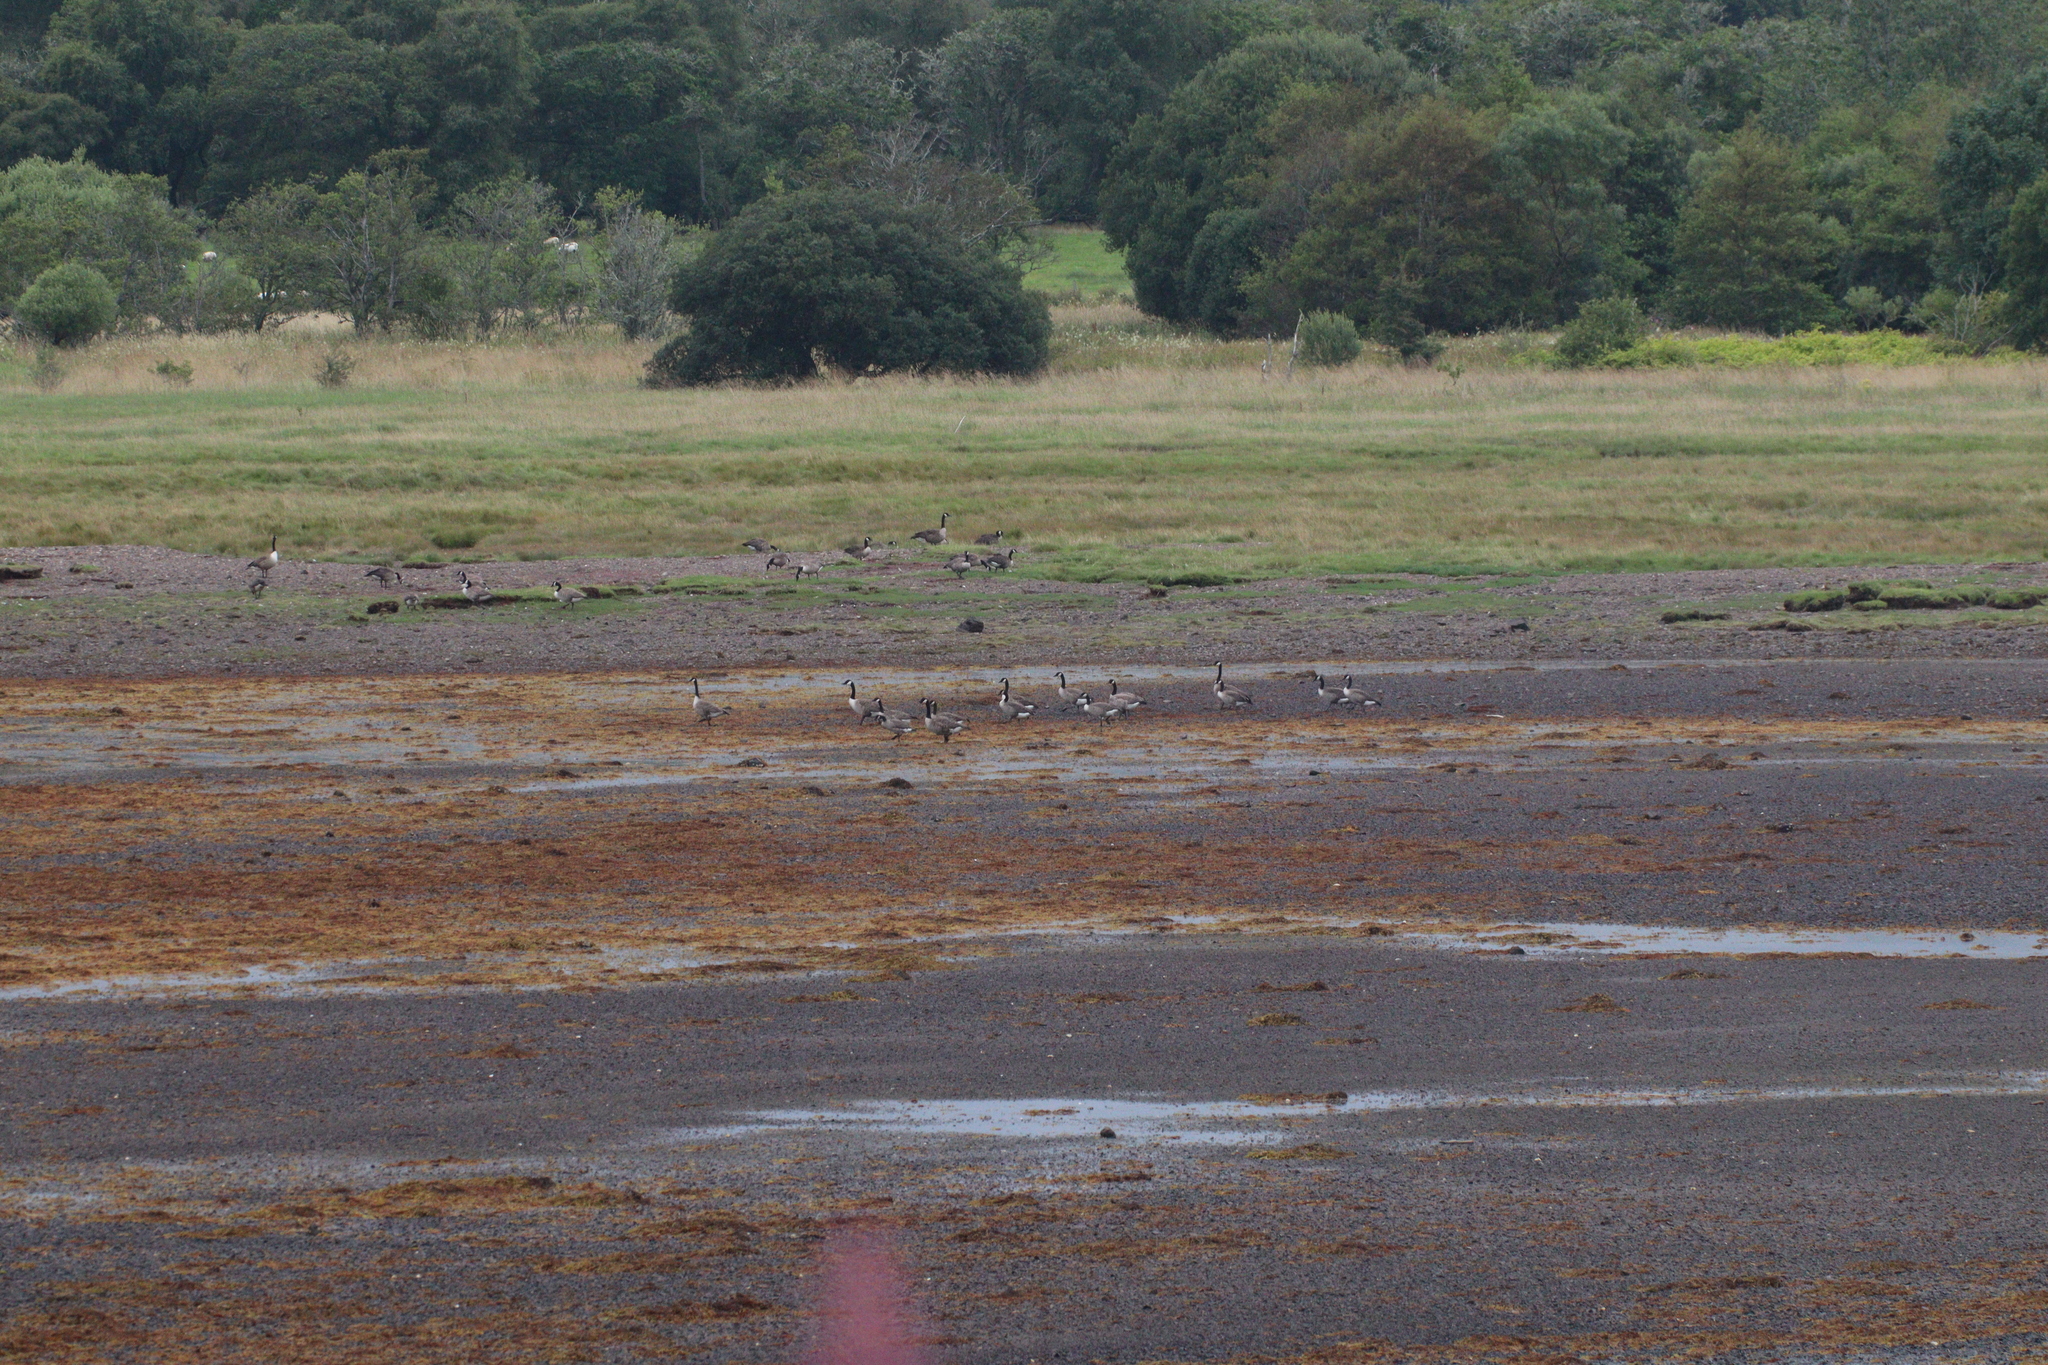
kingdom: Animalia
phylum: Chordata
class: Aves
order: Anseriformes
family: Anatidae
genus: Branta
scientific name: Branta canadensis
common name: Canada goose
